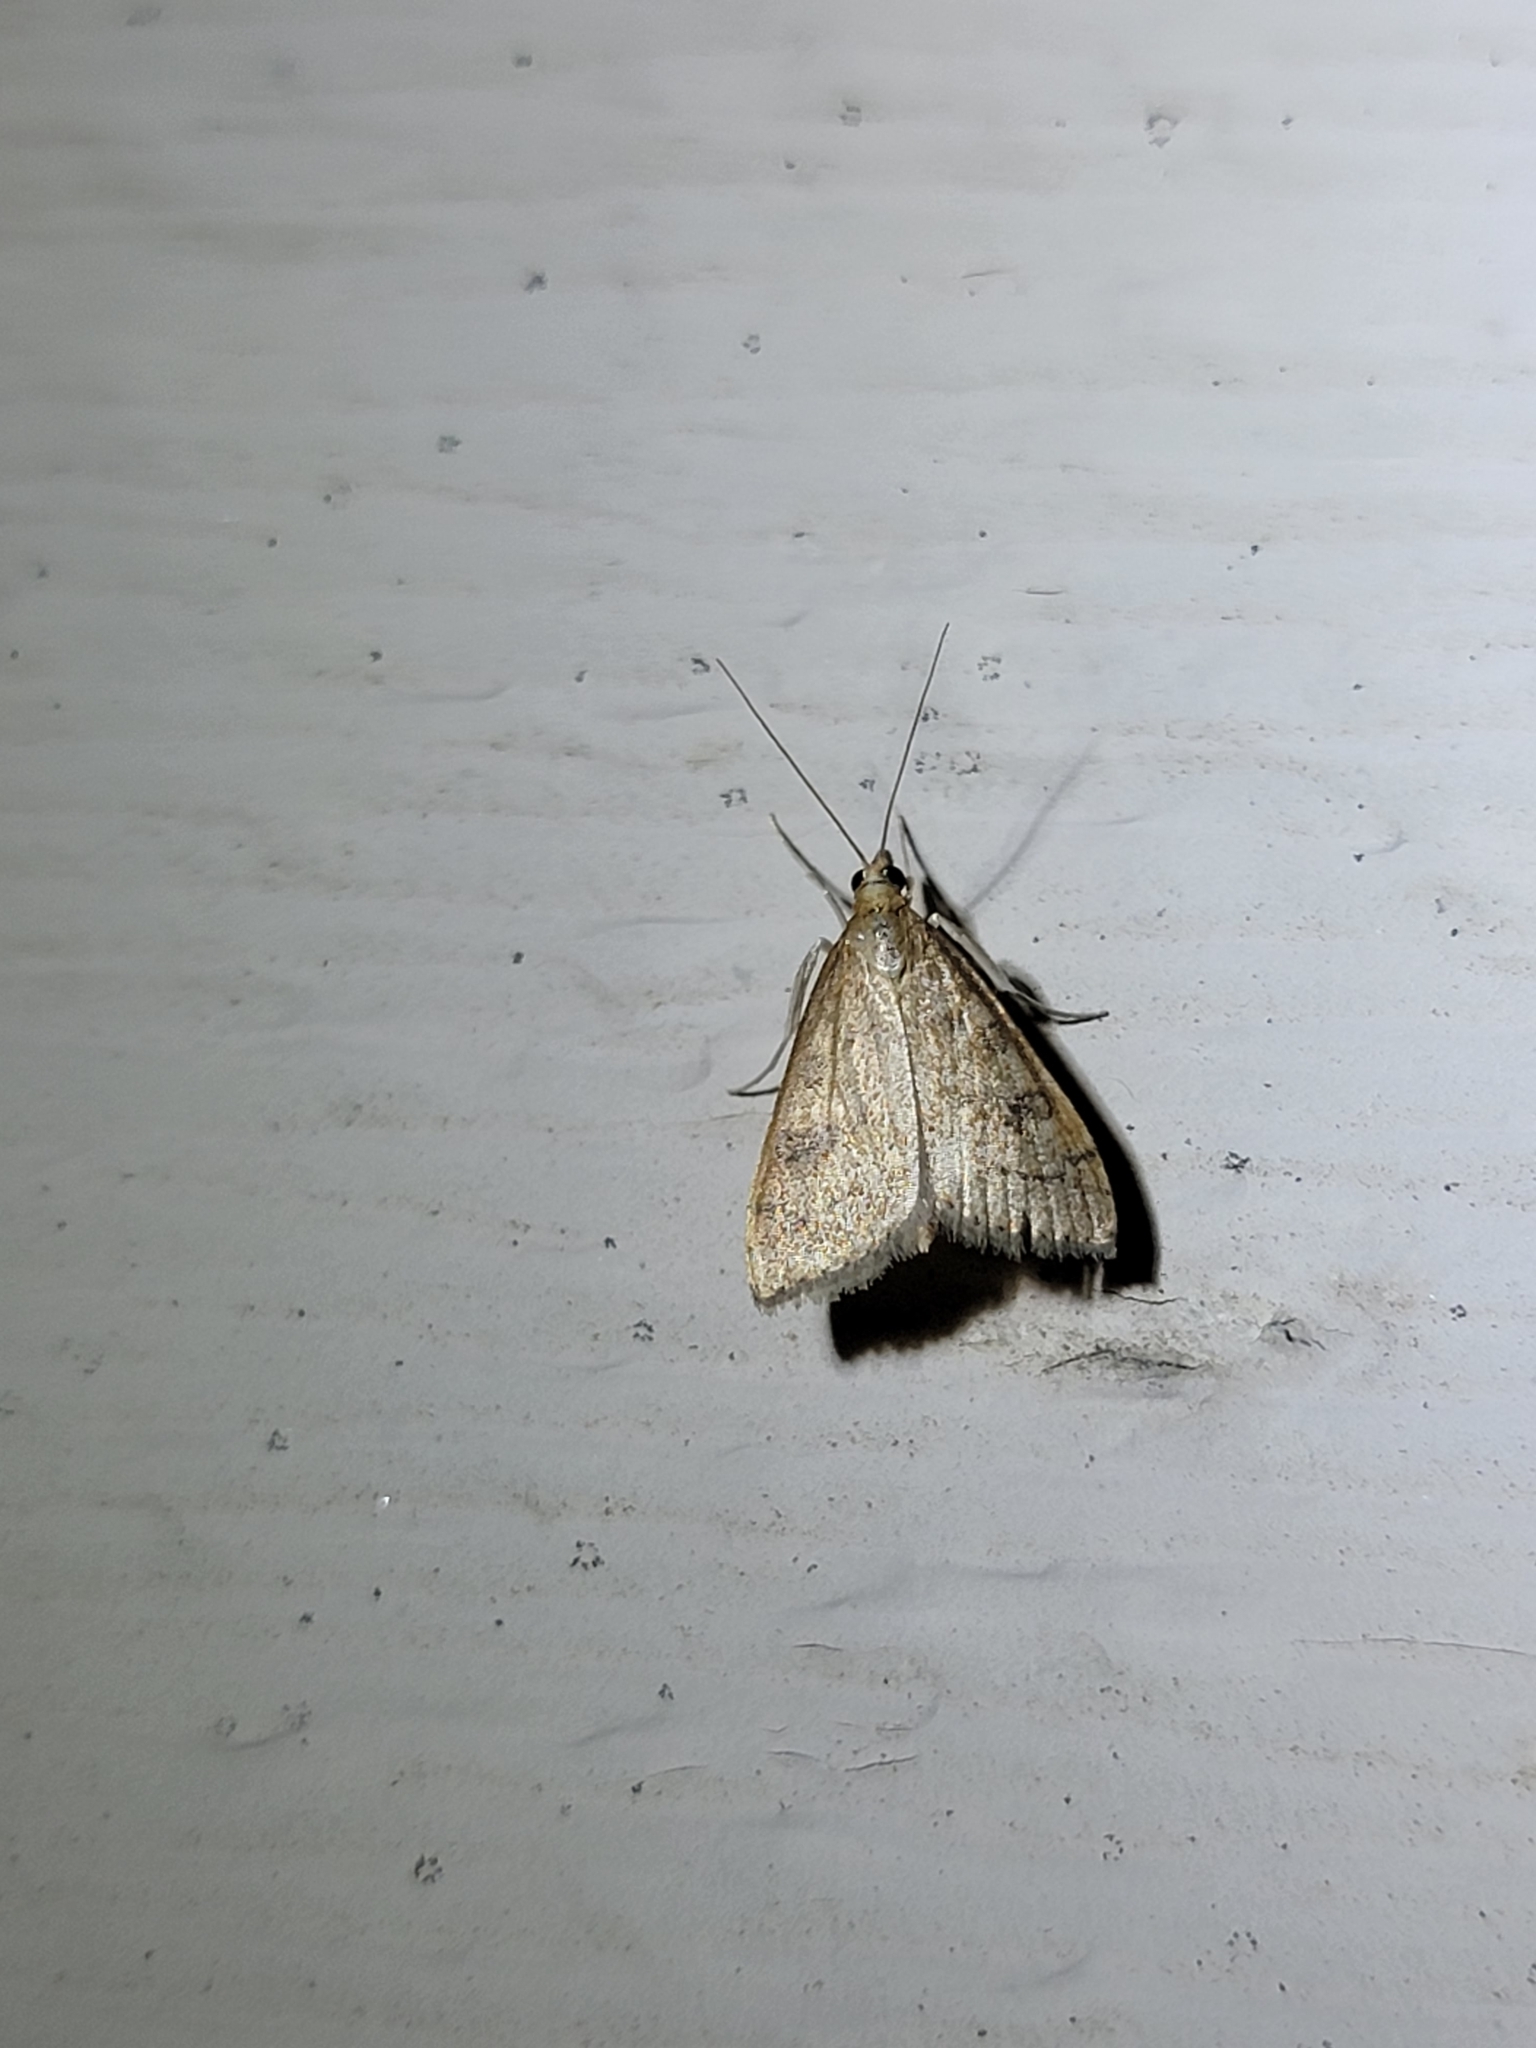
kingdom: Animalia
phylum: Arthropoda
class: Insecta
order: Lepidoptera
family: Crambidae
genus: Udea
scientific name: Udea rubigalis
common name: Celery leaftier moth
